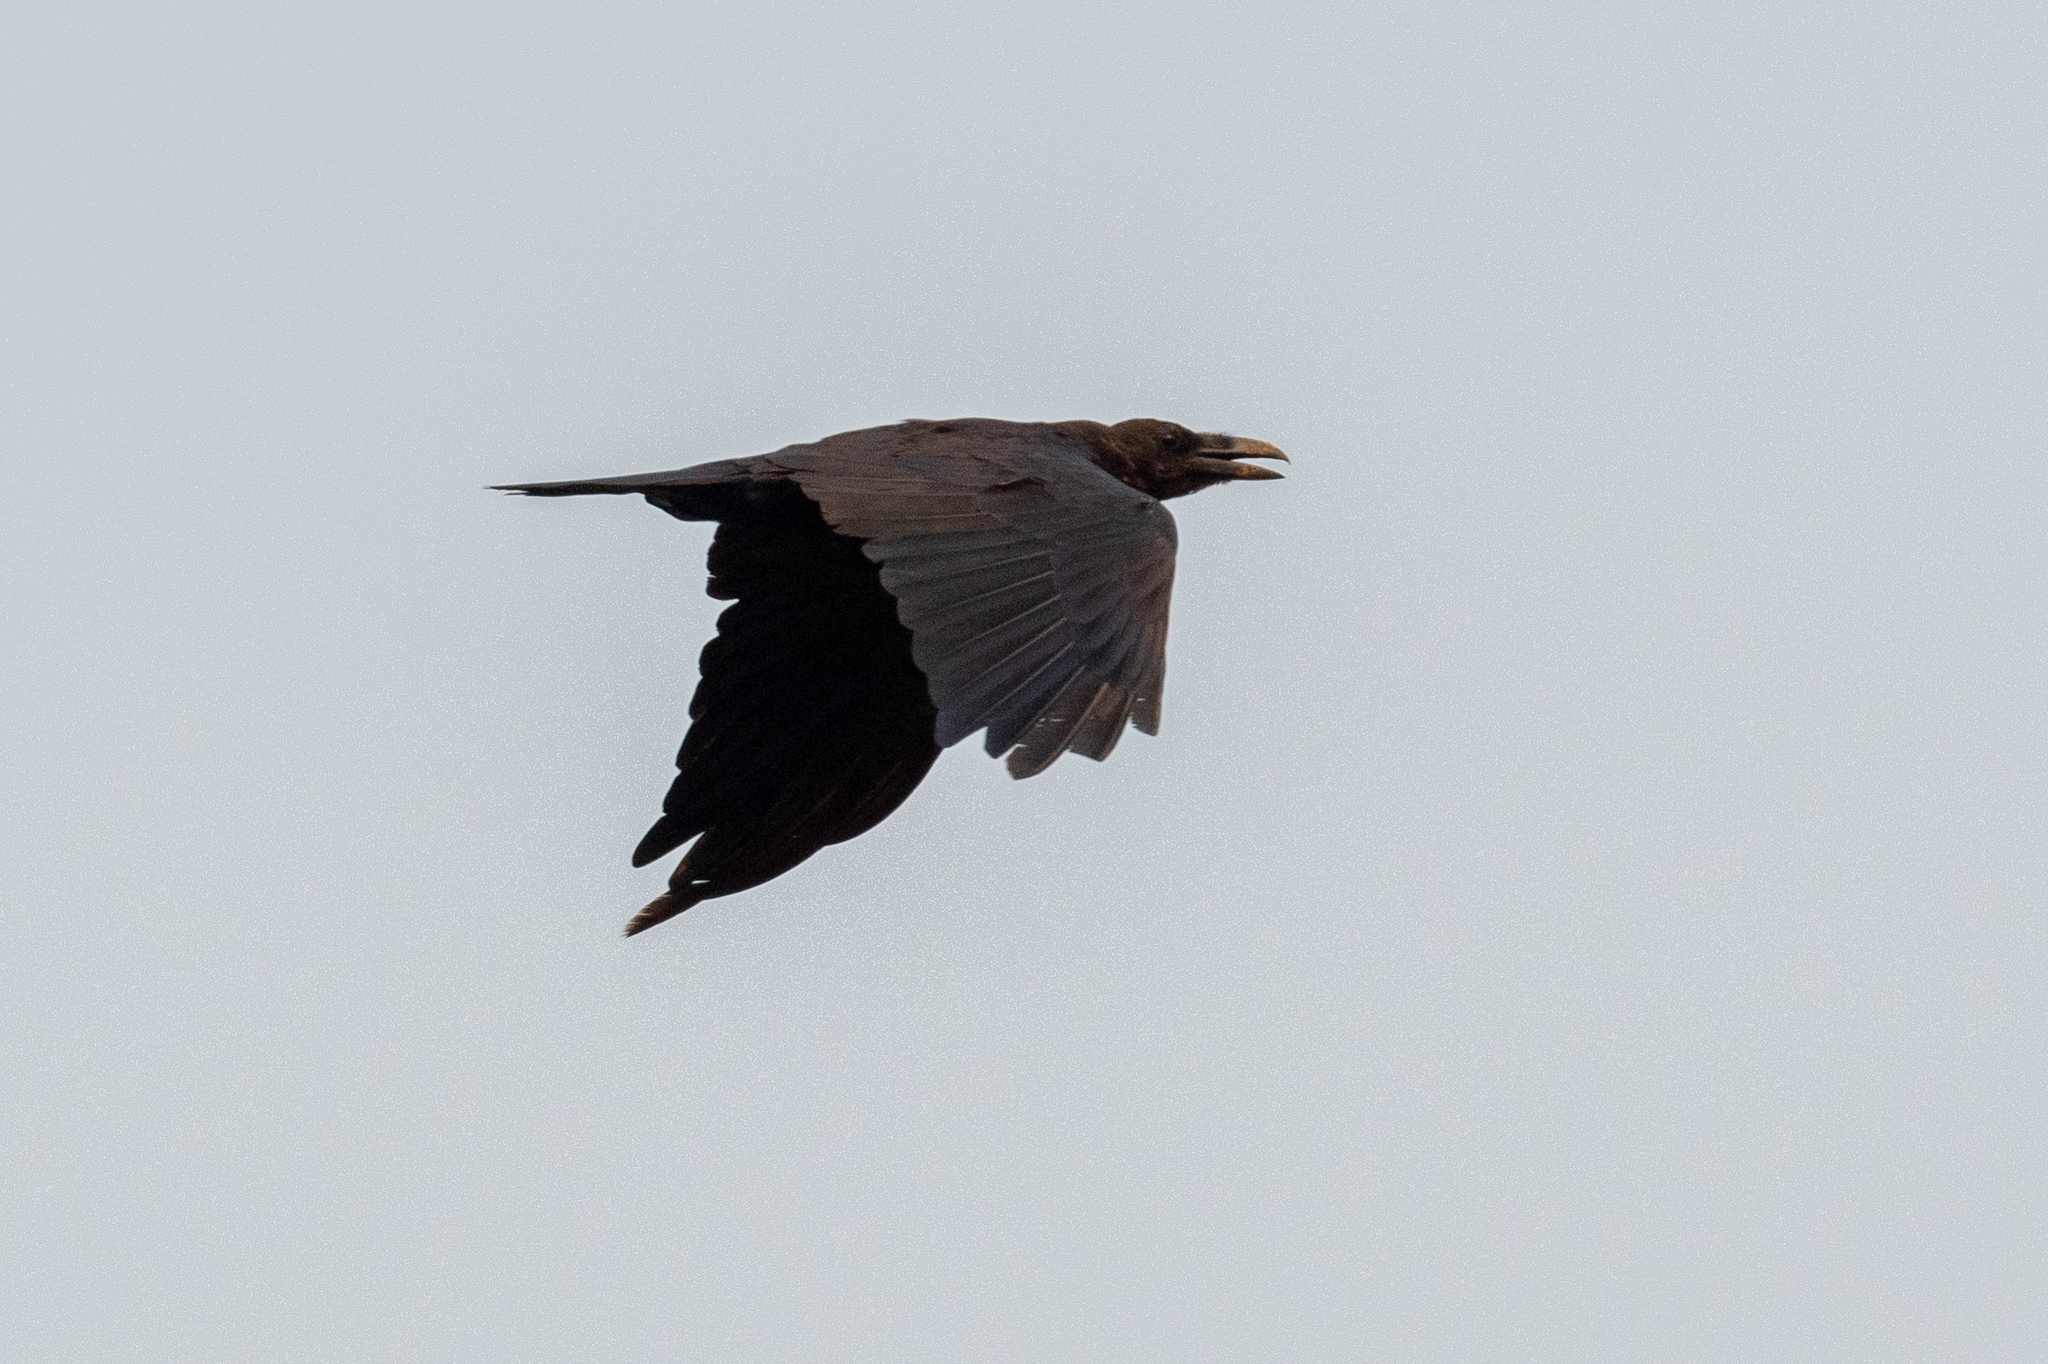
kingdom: Animalia
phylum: Chordata
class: Aves
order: Passeriformes
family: Corvidae
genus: Corvus
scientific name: Corvus corax
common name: Common raven
